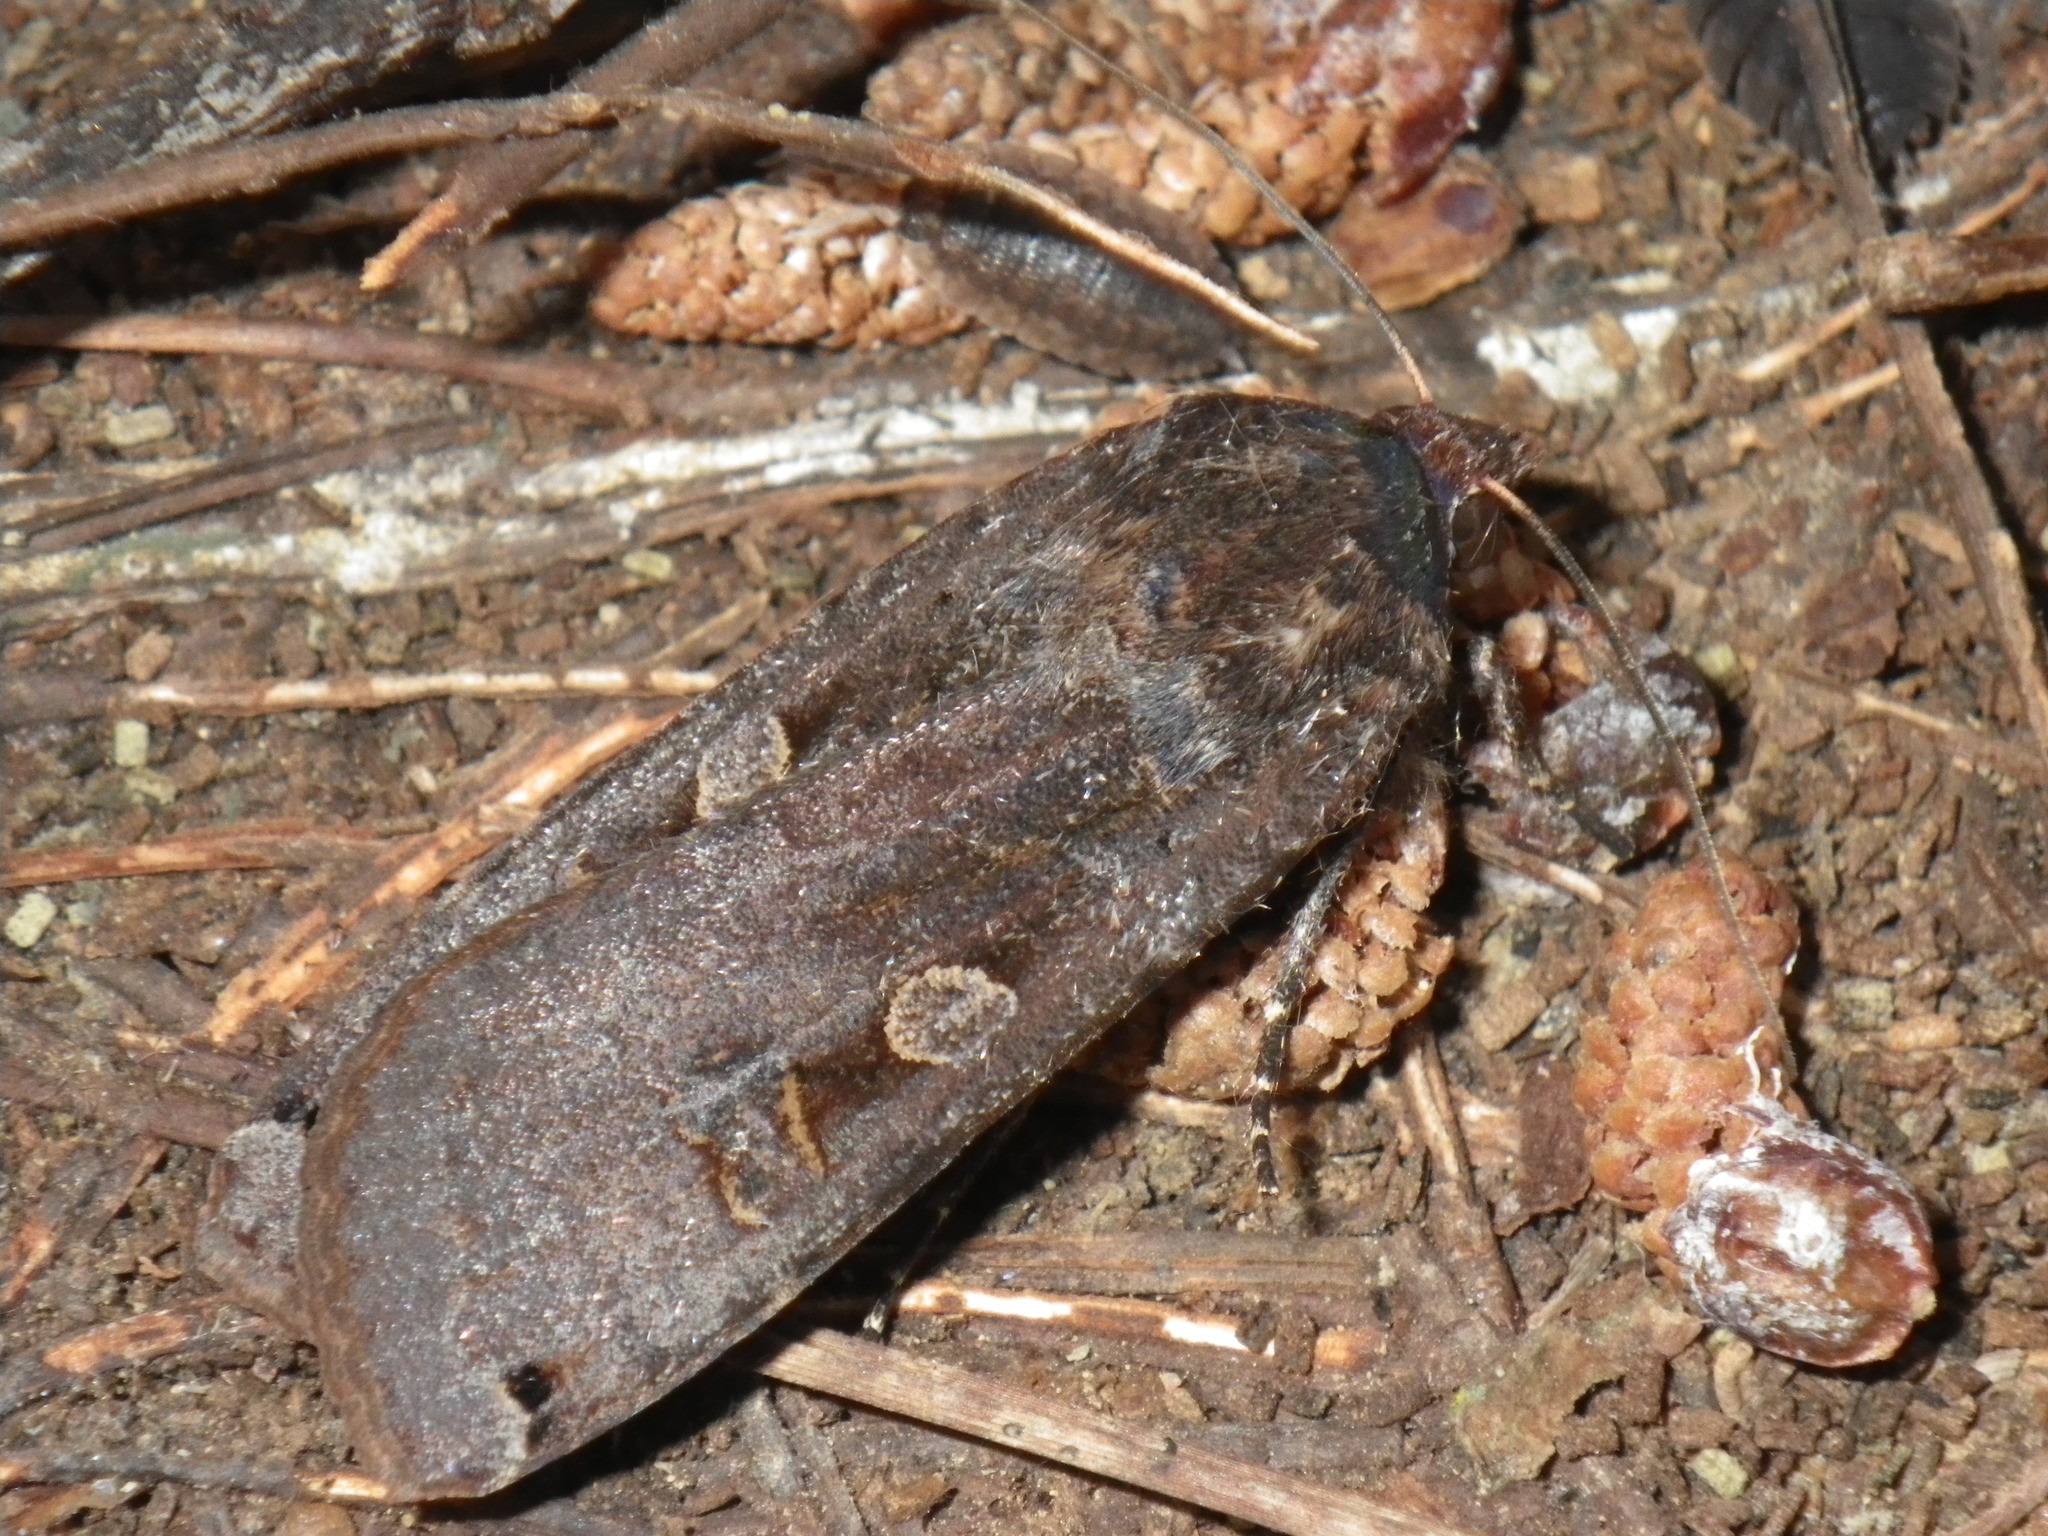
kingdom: Animalia
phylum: Arthropoda
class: Insecta
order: Lepidoptera
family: Noctuidae
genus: Noctua
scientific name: Noctua pronuba
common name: Large yellow underwing
